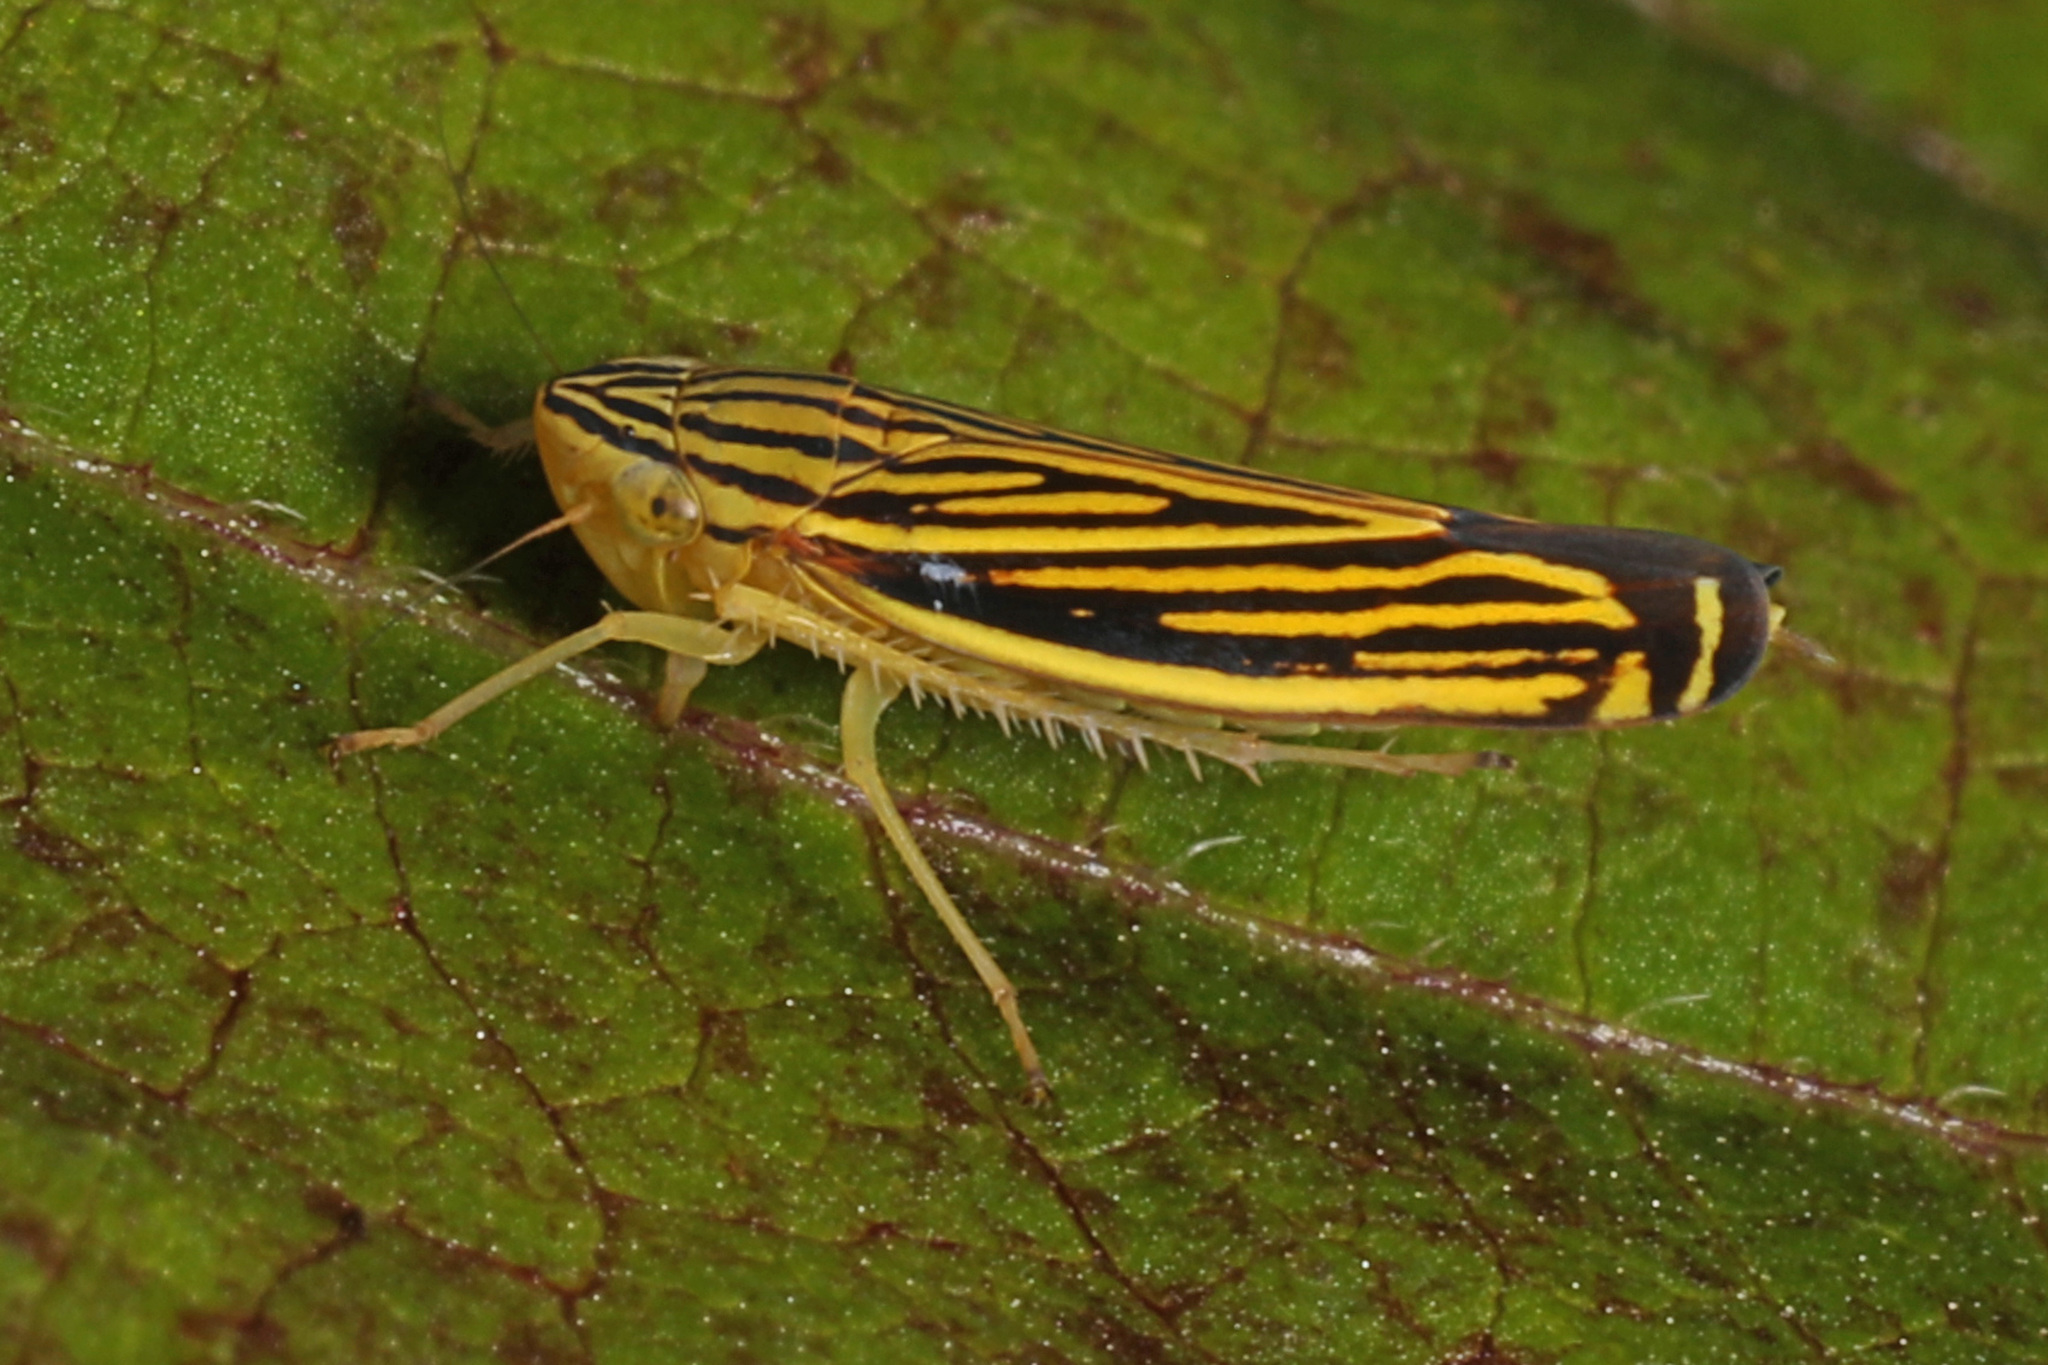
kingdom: Animalia
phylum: Arthropoda
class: Insecta
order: Hemiptera
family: Cicadellidae
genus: Sibovia
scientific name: Sibovia occatoria
